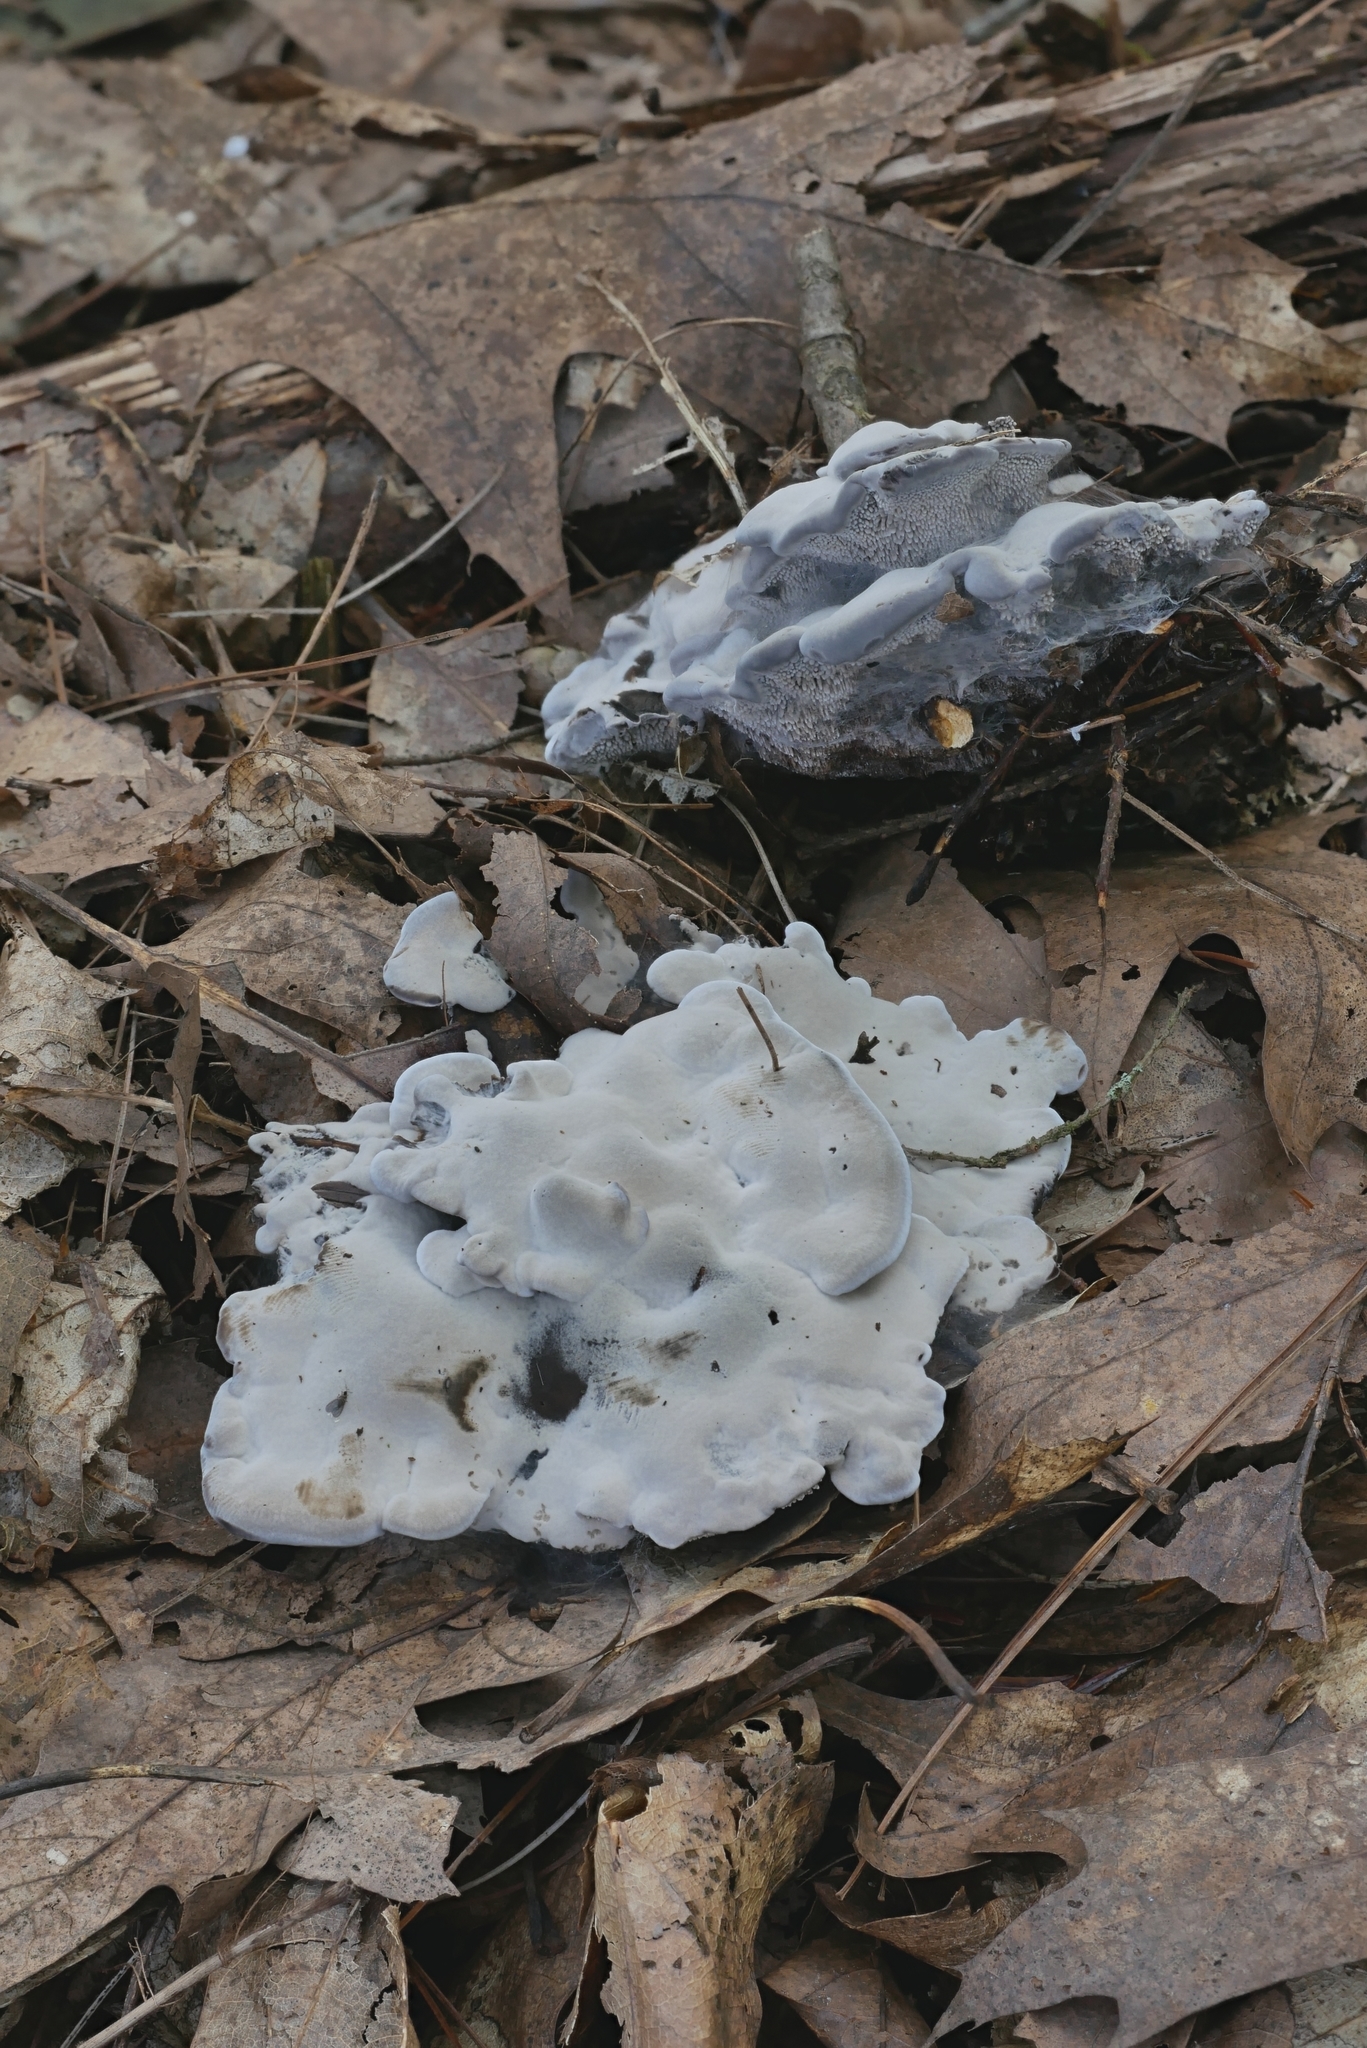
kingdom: Fungi
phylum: Basidiomycota
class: Agaricomycetes
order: Thelephorales
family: Thelephoraceae
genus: Phellodon
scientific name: Phellodon niger
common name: Black tooth
